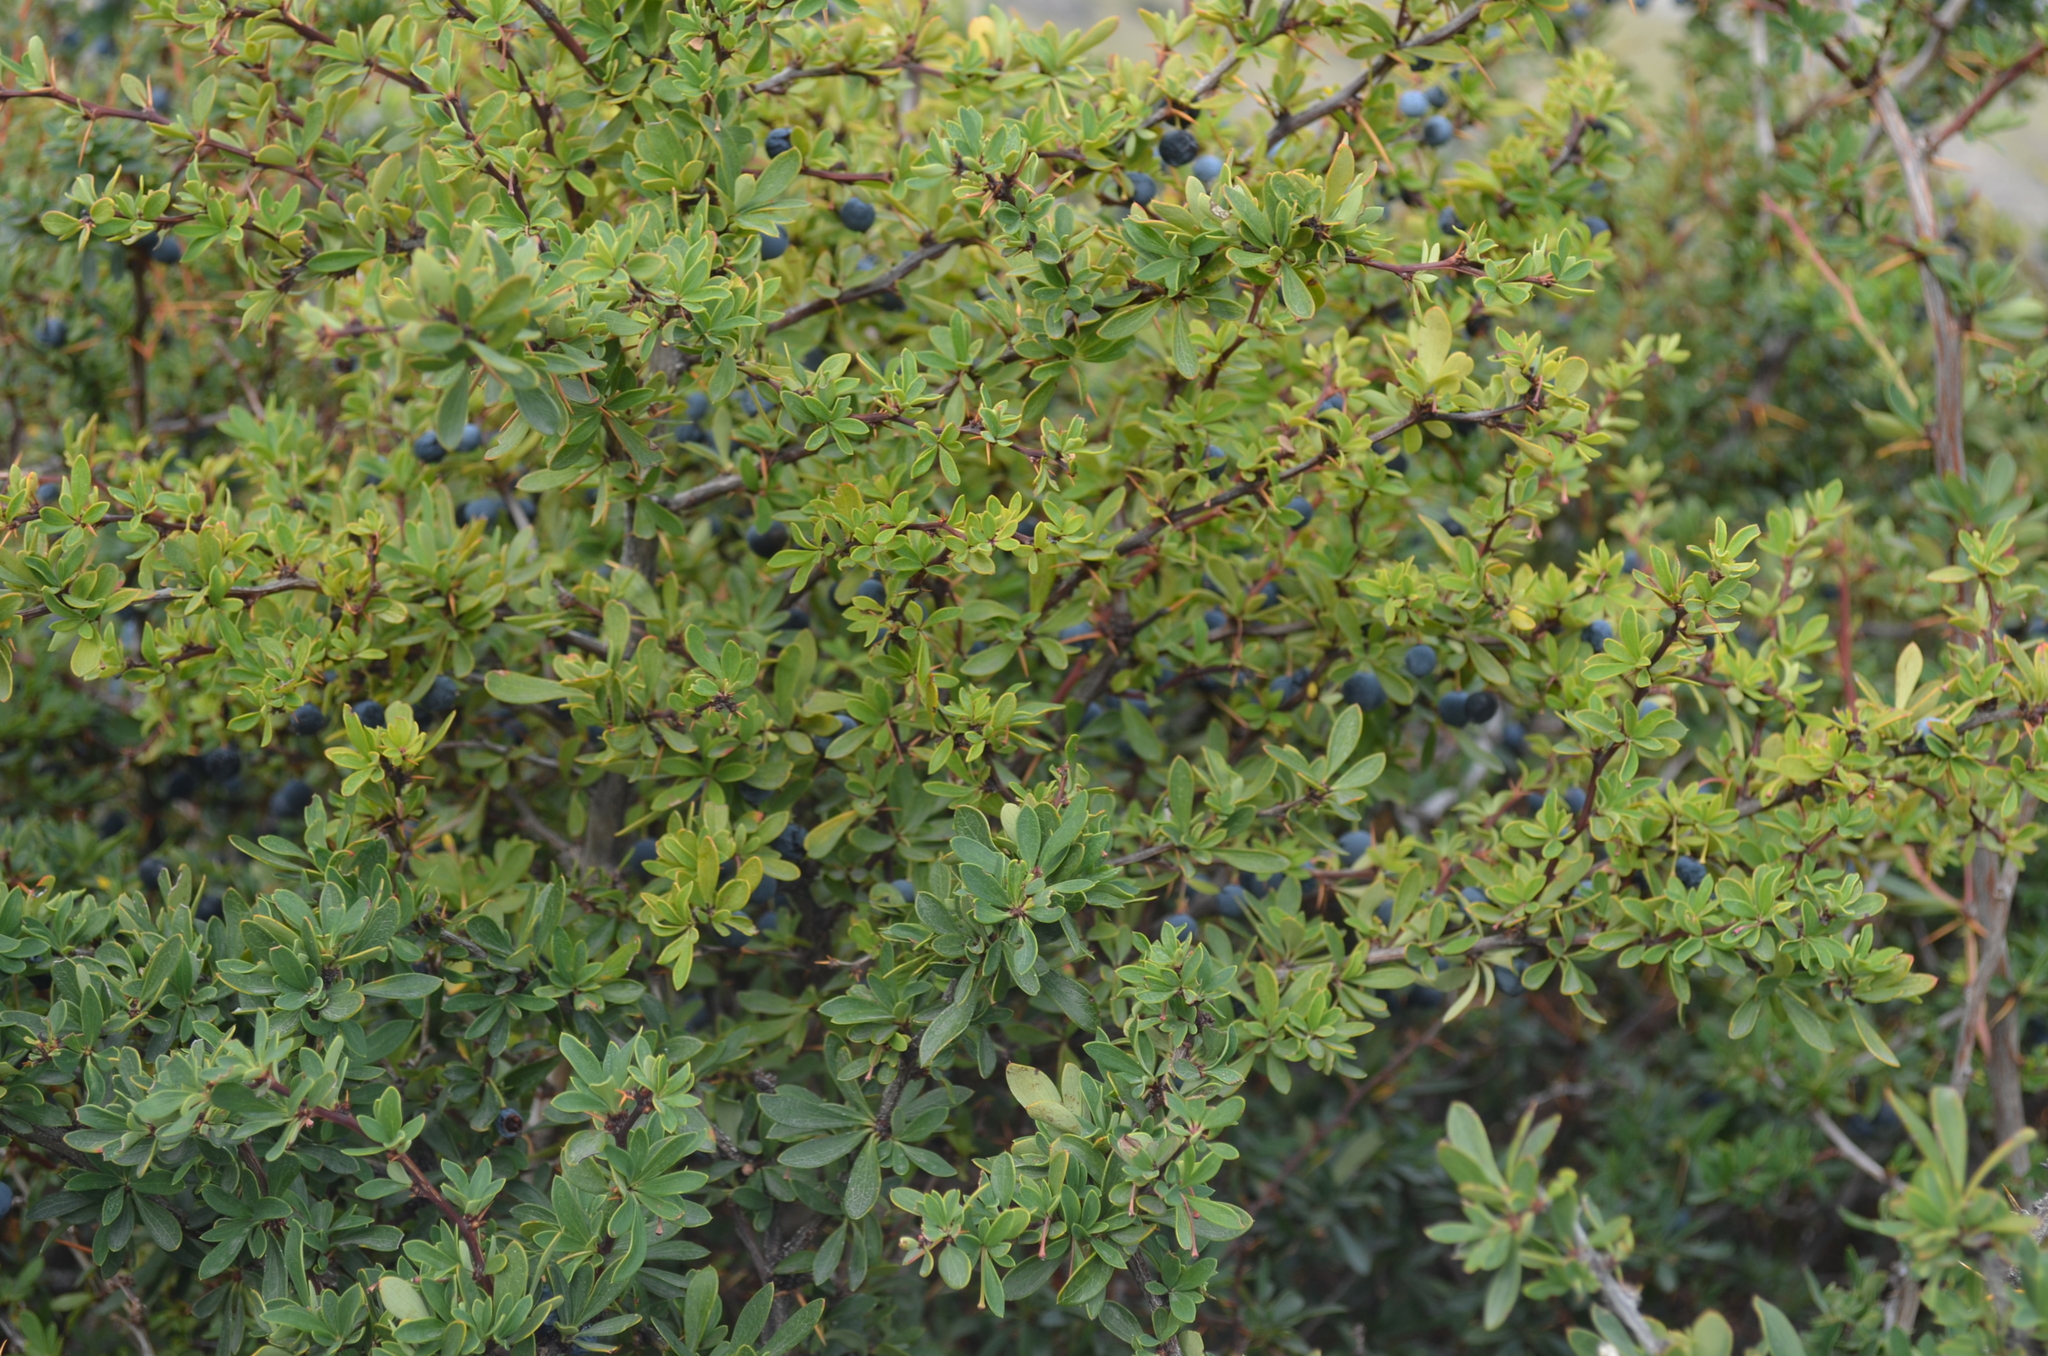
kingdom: Plantae
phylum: Tracheophyta
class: Magnoliopsida
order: Ranunculales
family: Berberidaceae
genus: Berberis
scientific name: Berberis microphylla
